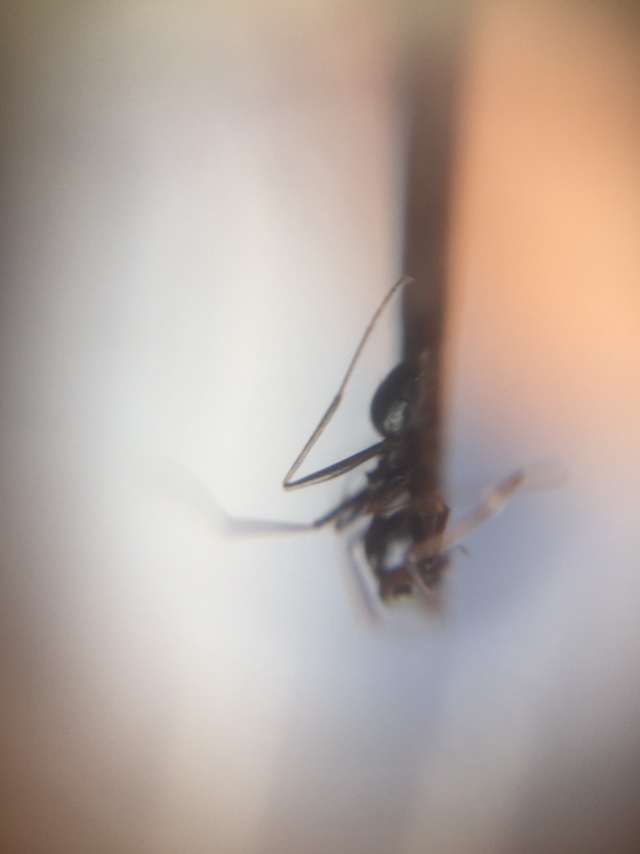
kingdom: Animalia
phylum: Arthropoda
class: Insecta
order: Hymenoptera
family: Formicidae
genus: Lepisiota
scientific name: Lepisiota integra
